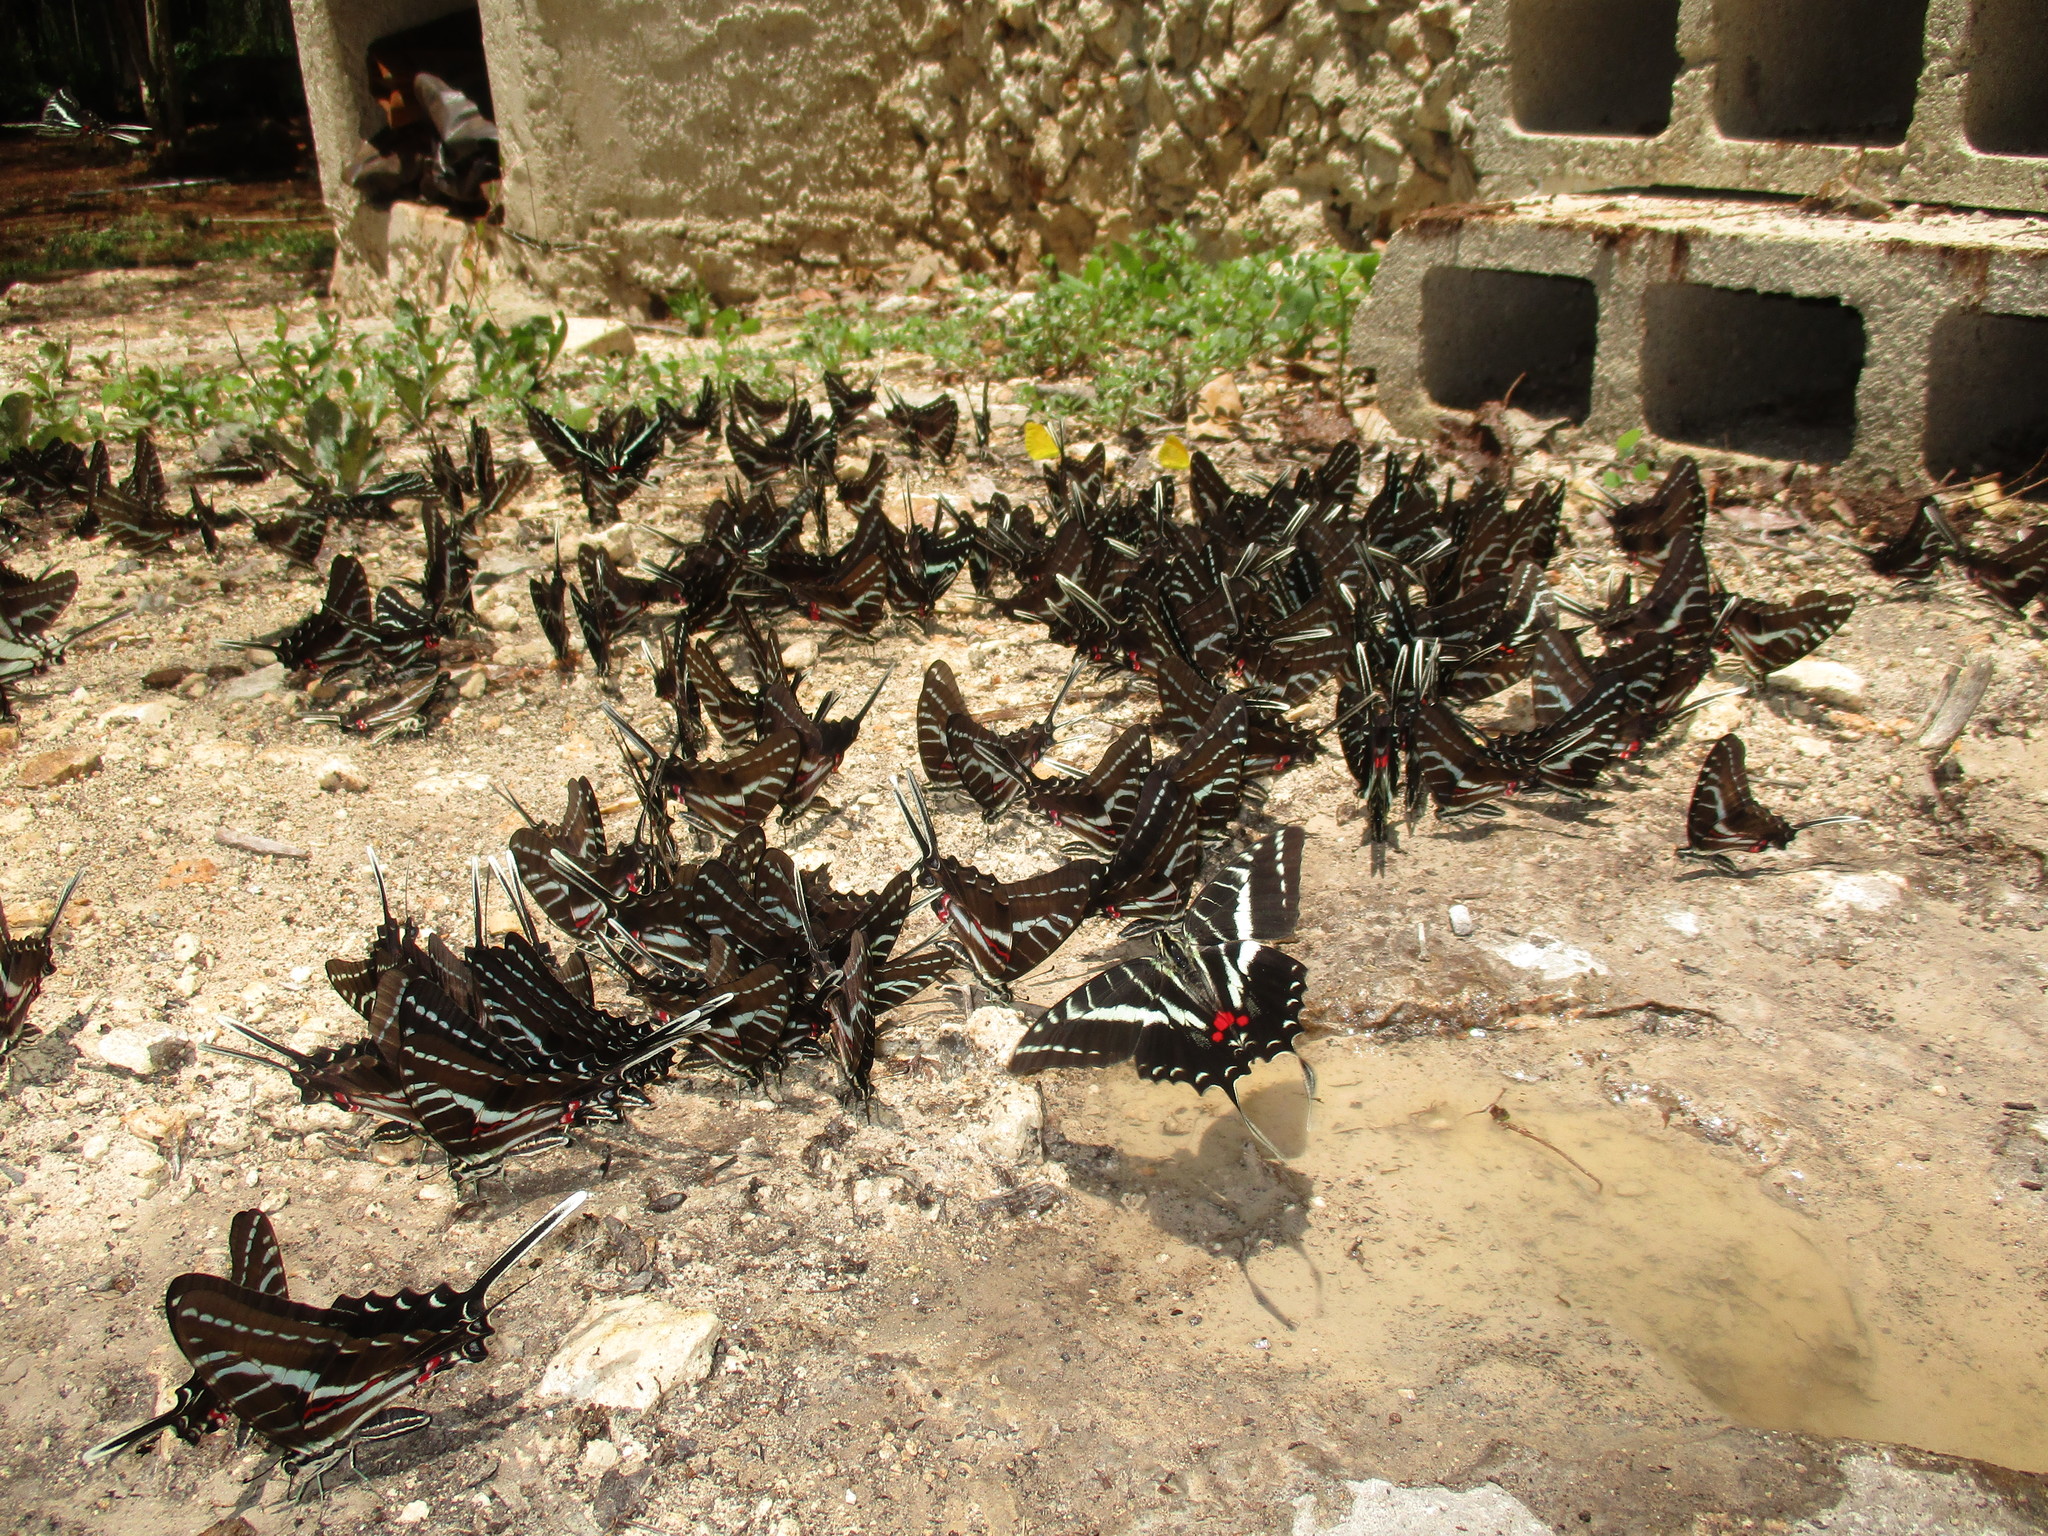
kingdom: Animalia
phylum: Arthropoda
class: Insecta
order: Lepidoptera
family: Papilionidae
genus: Protographium
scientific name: Protographium philolaus
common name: Dark zebra swallowtail
